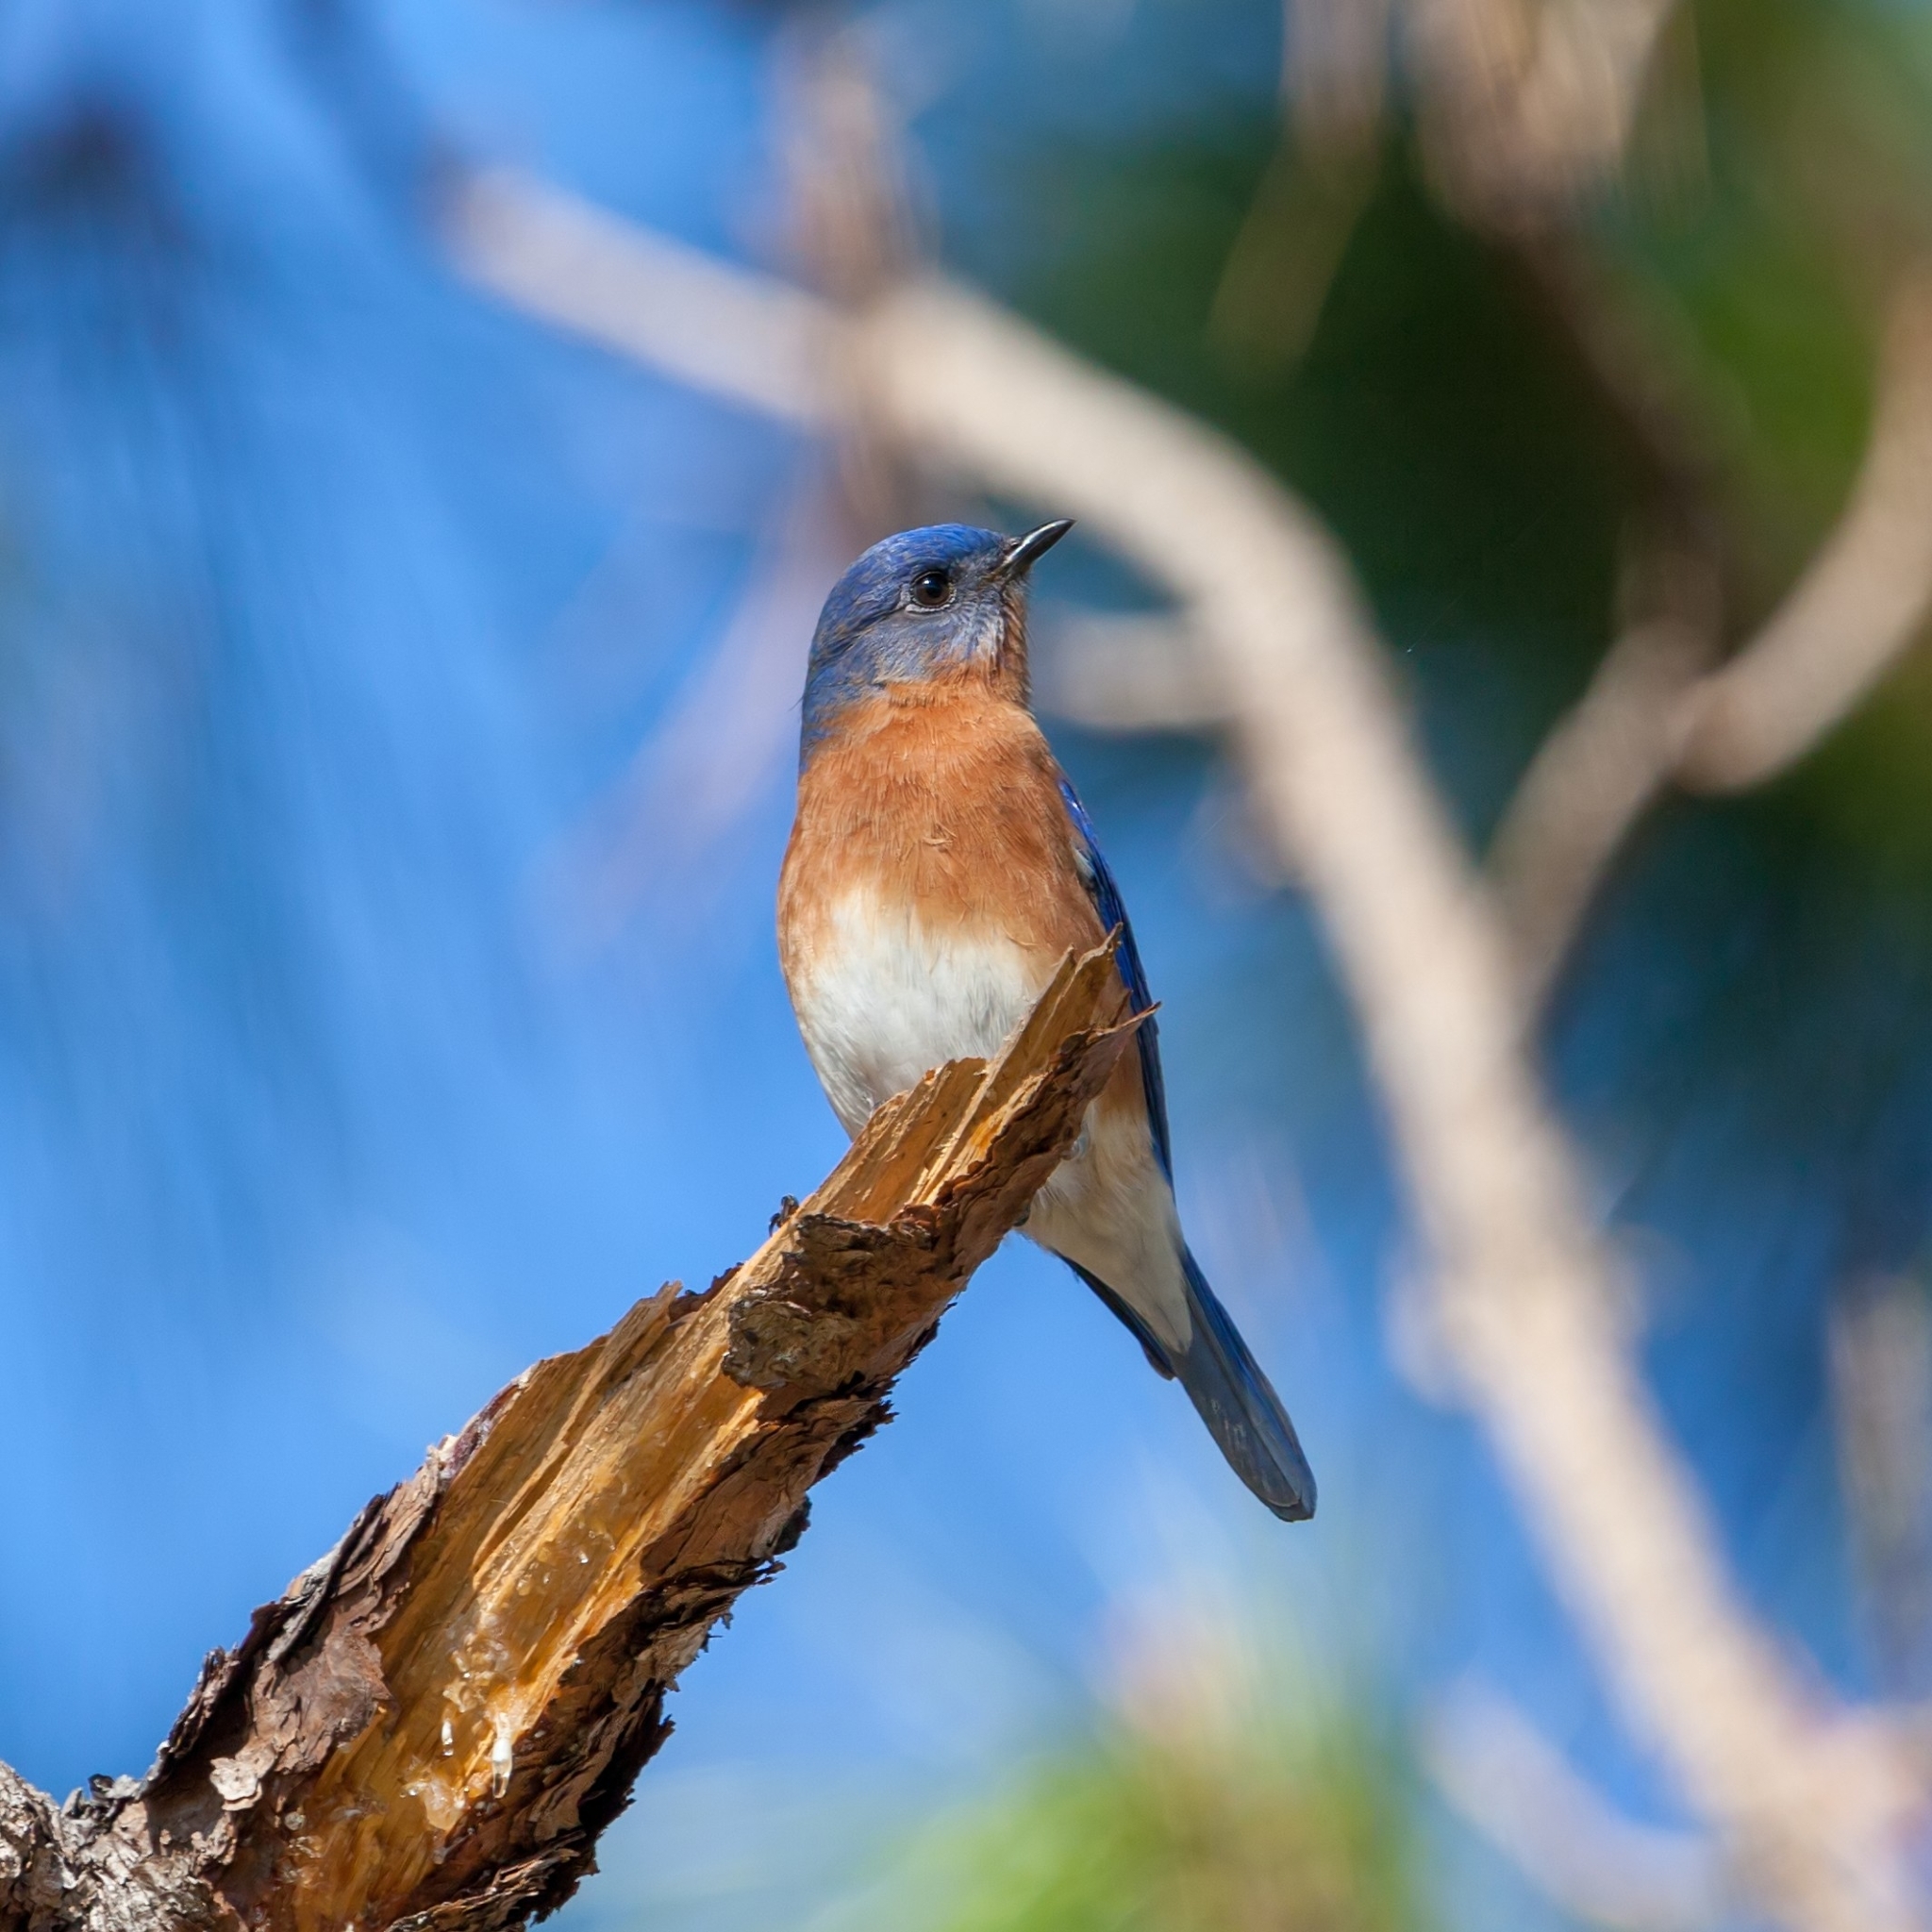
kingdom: Animalia
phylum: Chordata
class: Aves
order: Passeriformes
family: Turdidae
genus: Sialia
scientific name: Sialia sialis
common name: Eastern bluebird
